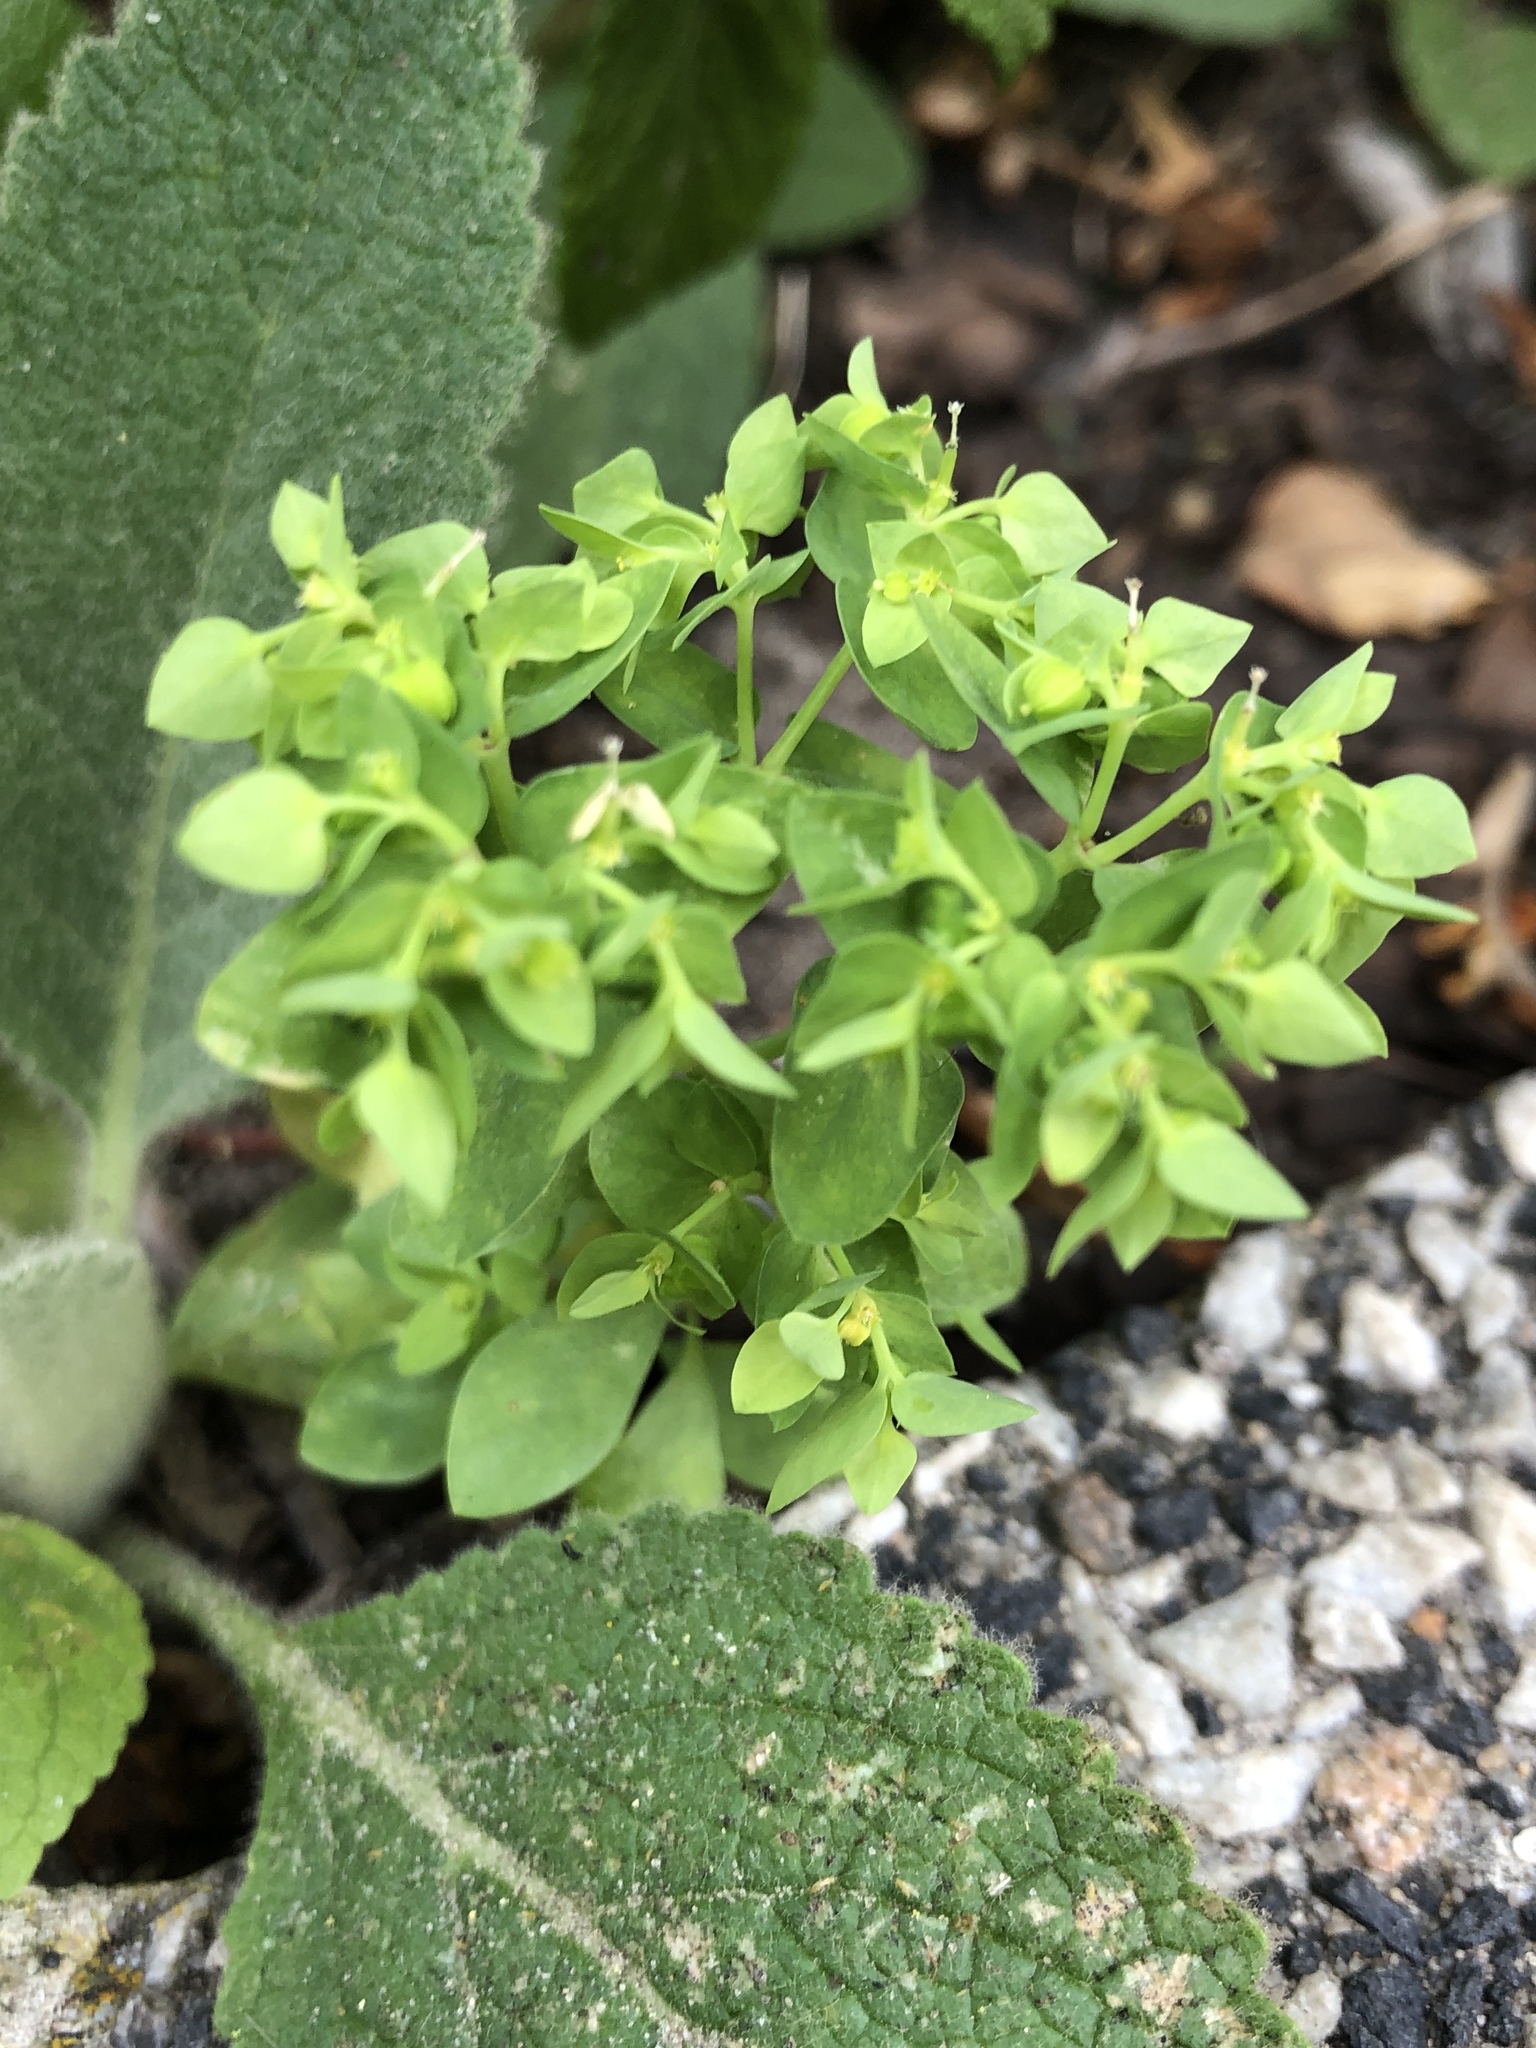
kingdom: Plantae
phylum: Tracheophyta
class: Magnoliopsida
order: Malpighiales
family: Euphorbiaceae
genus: Euphorbia
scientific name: Euphorbia peplus
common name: Petty spurge
